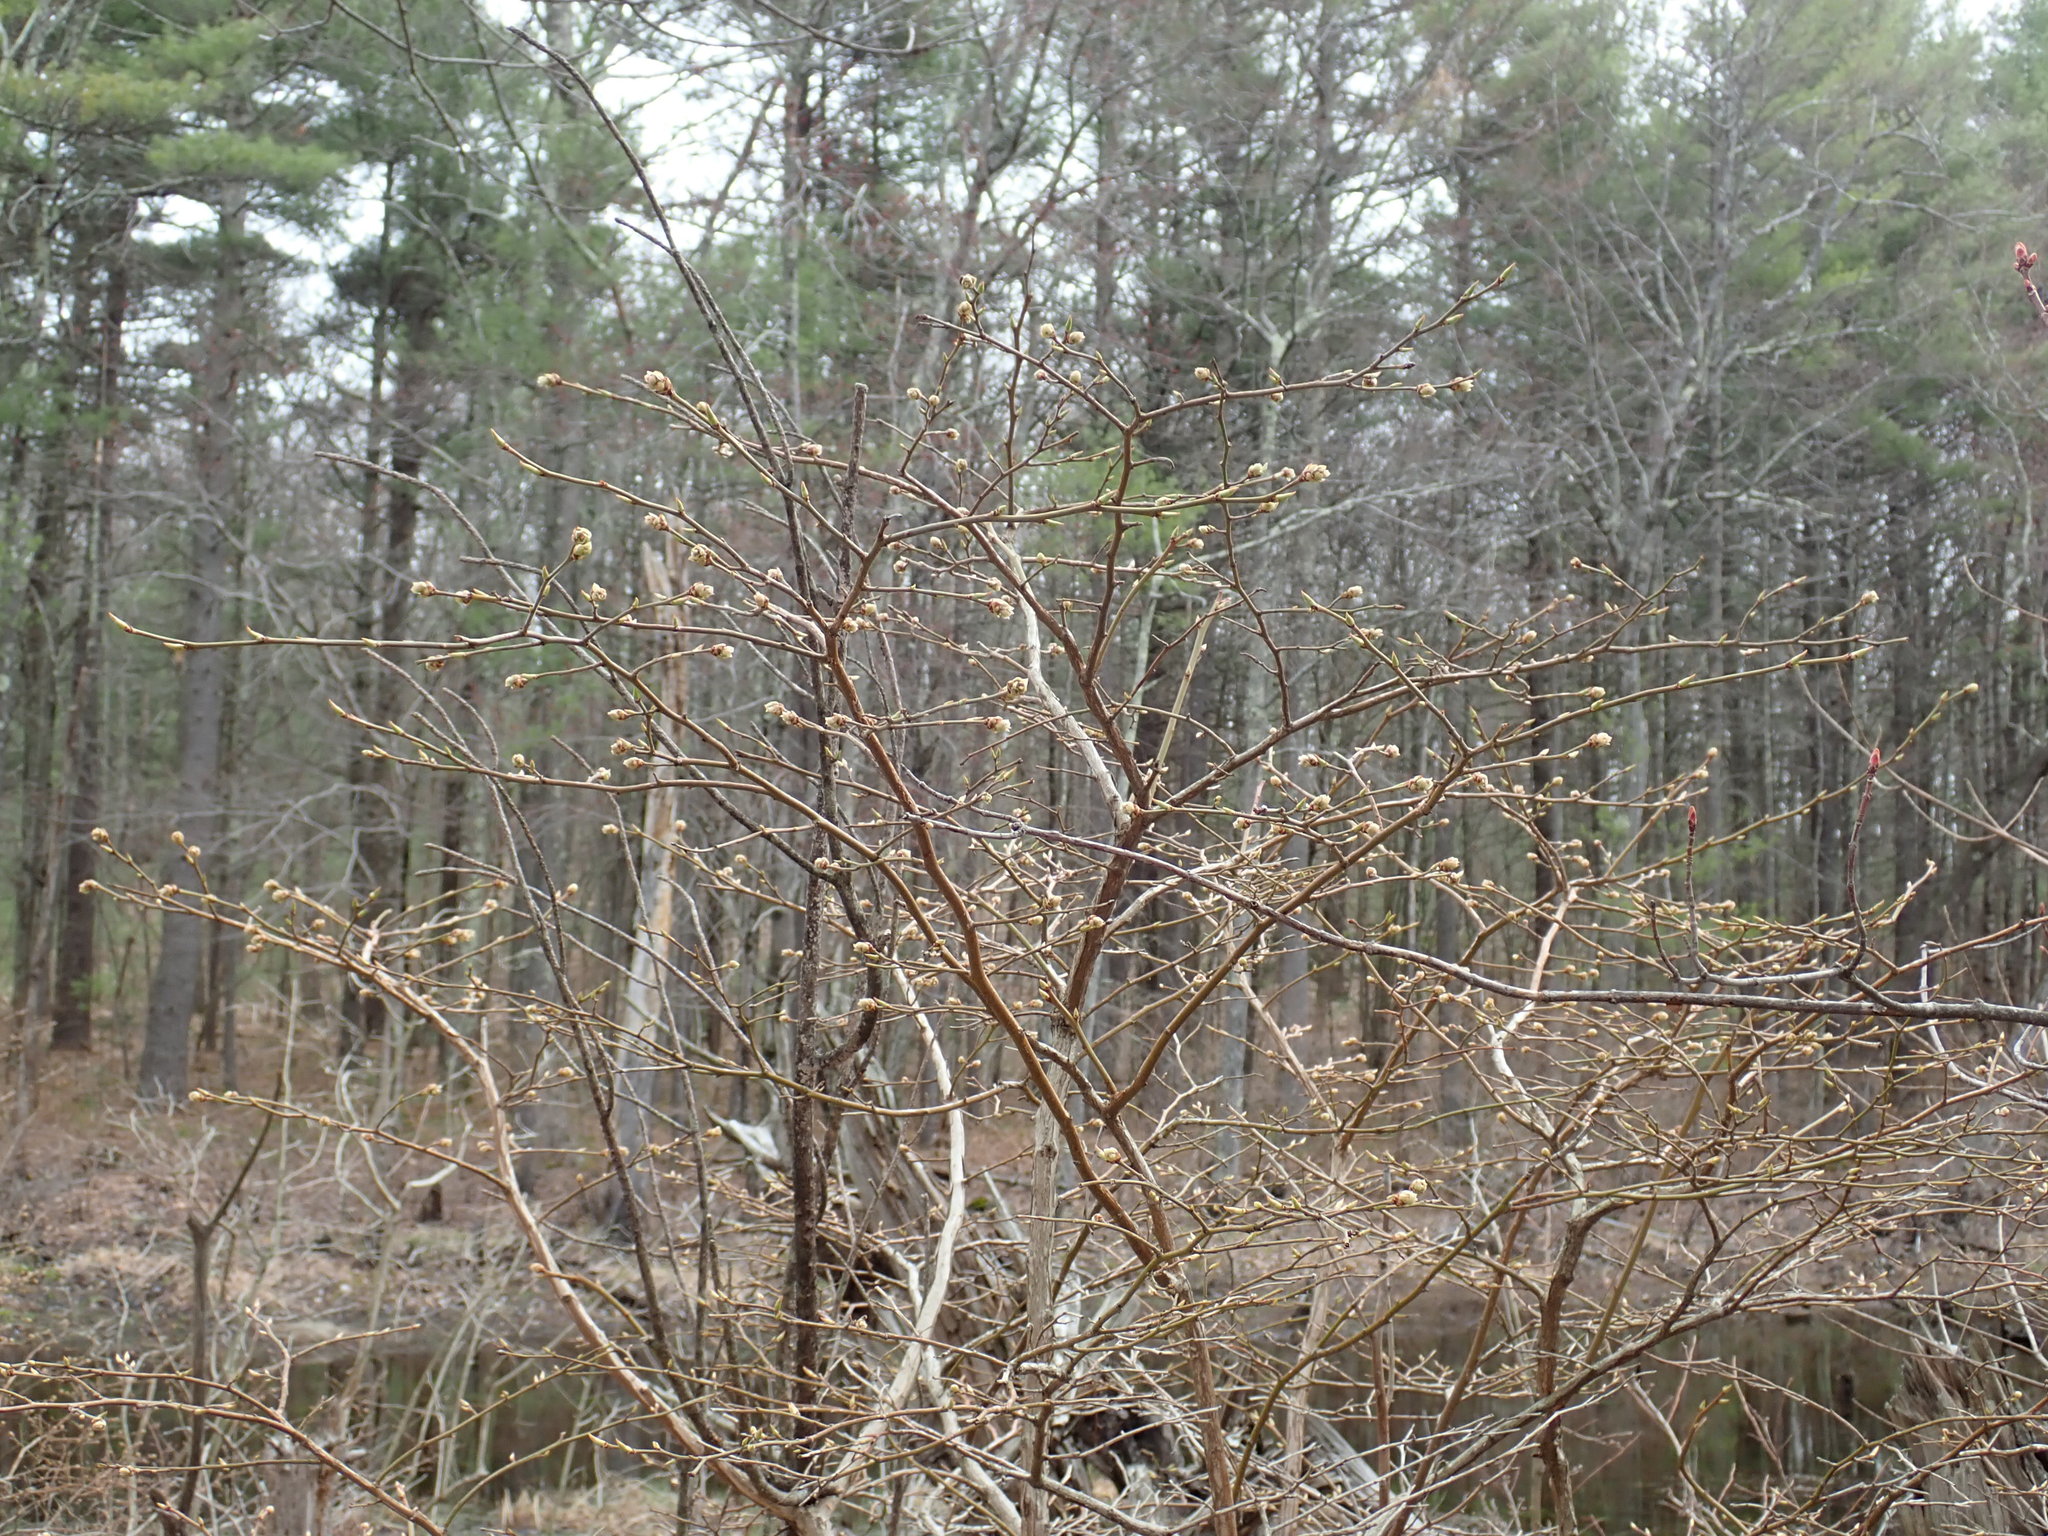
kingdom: Plantae
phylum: Tracheophyta
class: Magnoliopsida
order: Ericales
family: Ericaceae
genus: Vaccinium
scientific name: Vaccinium corymbosum
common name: Blueberry
